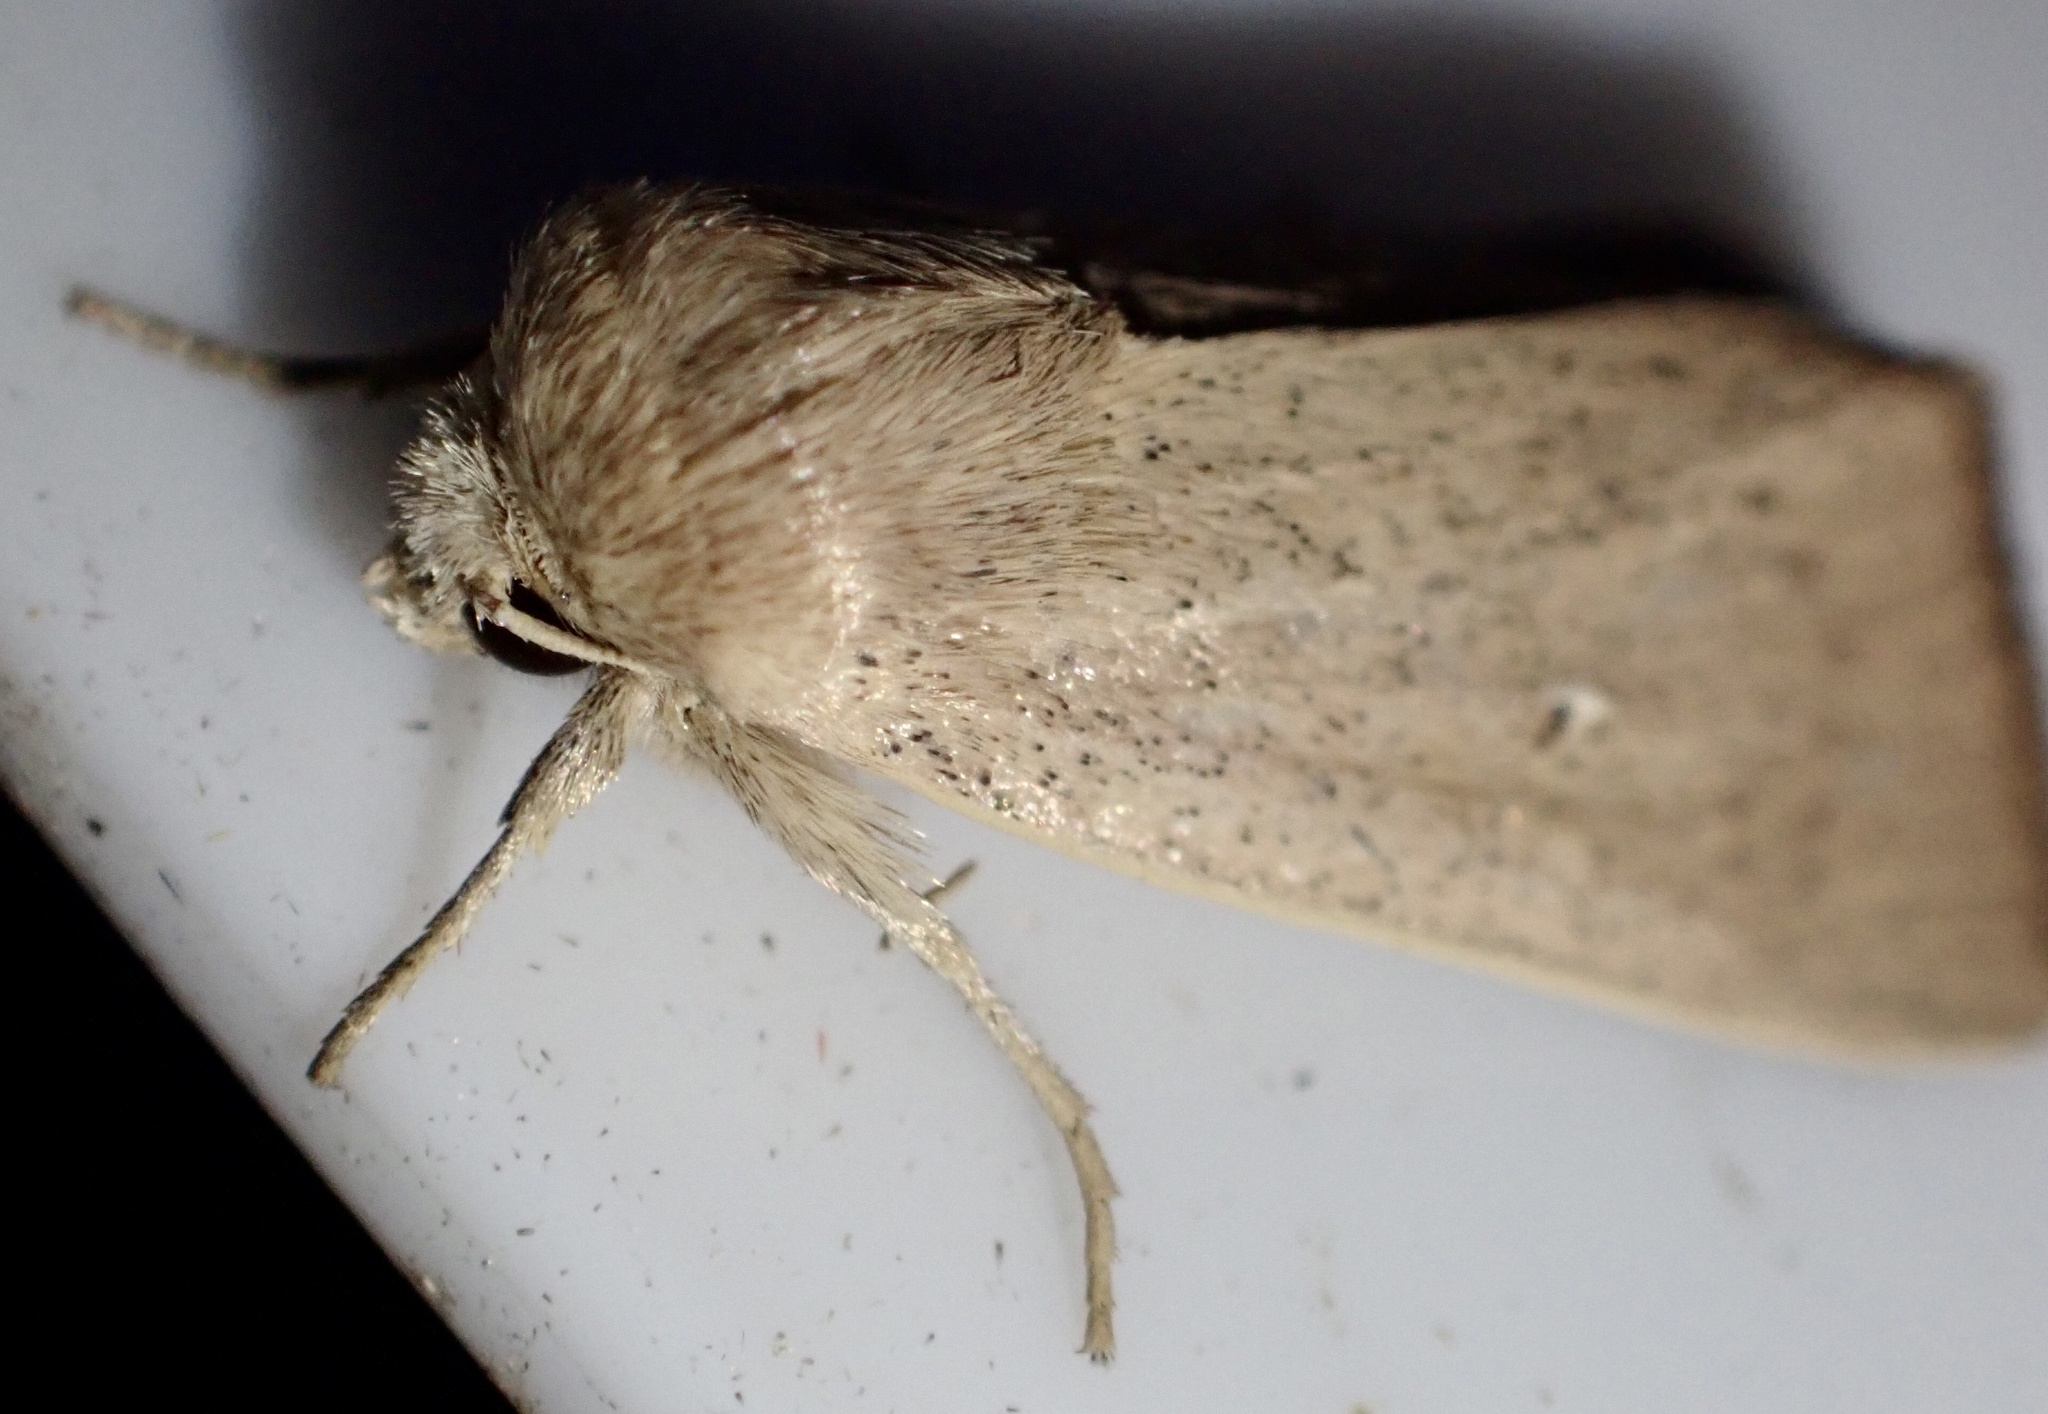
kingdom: Animalia
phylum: Arthropoda
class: Insecta
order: Lepidoptera
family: Noctuidae
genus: Mythimna
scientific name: Mythimna sicula
